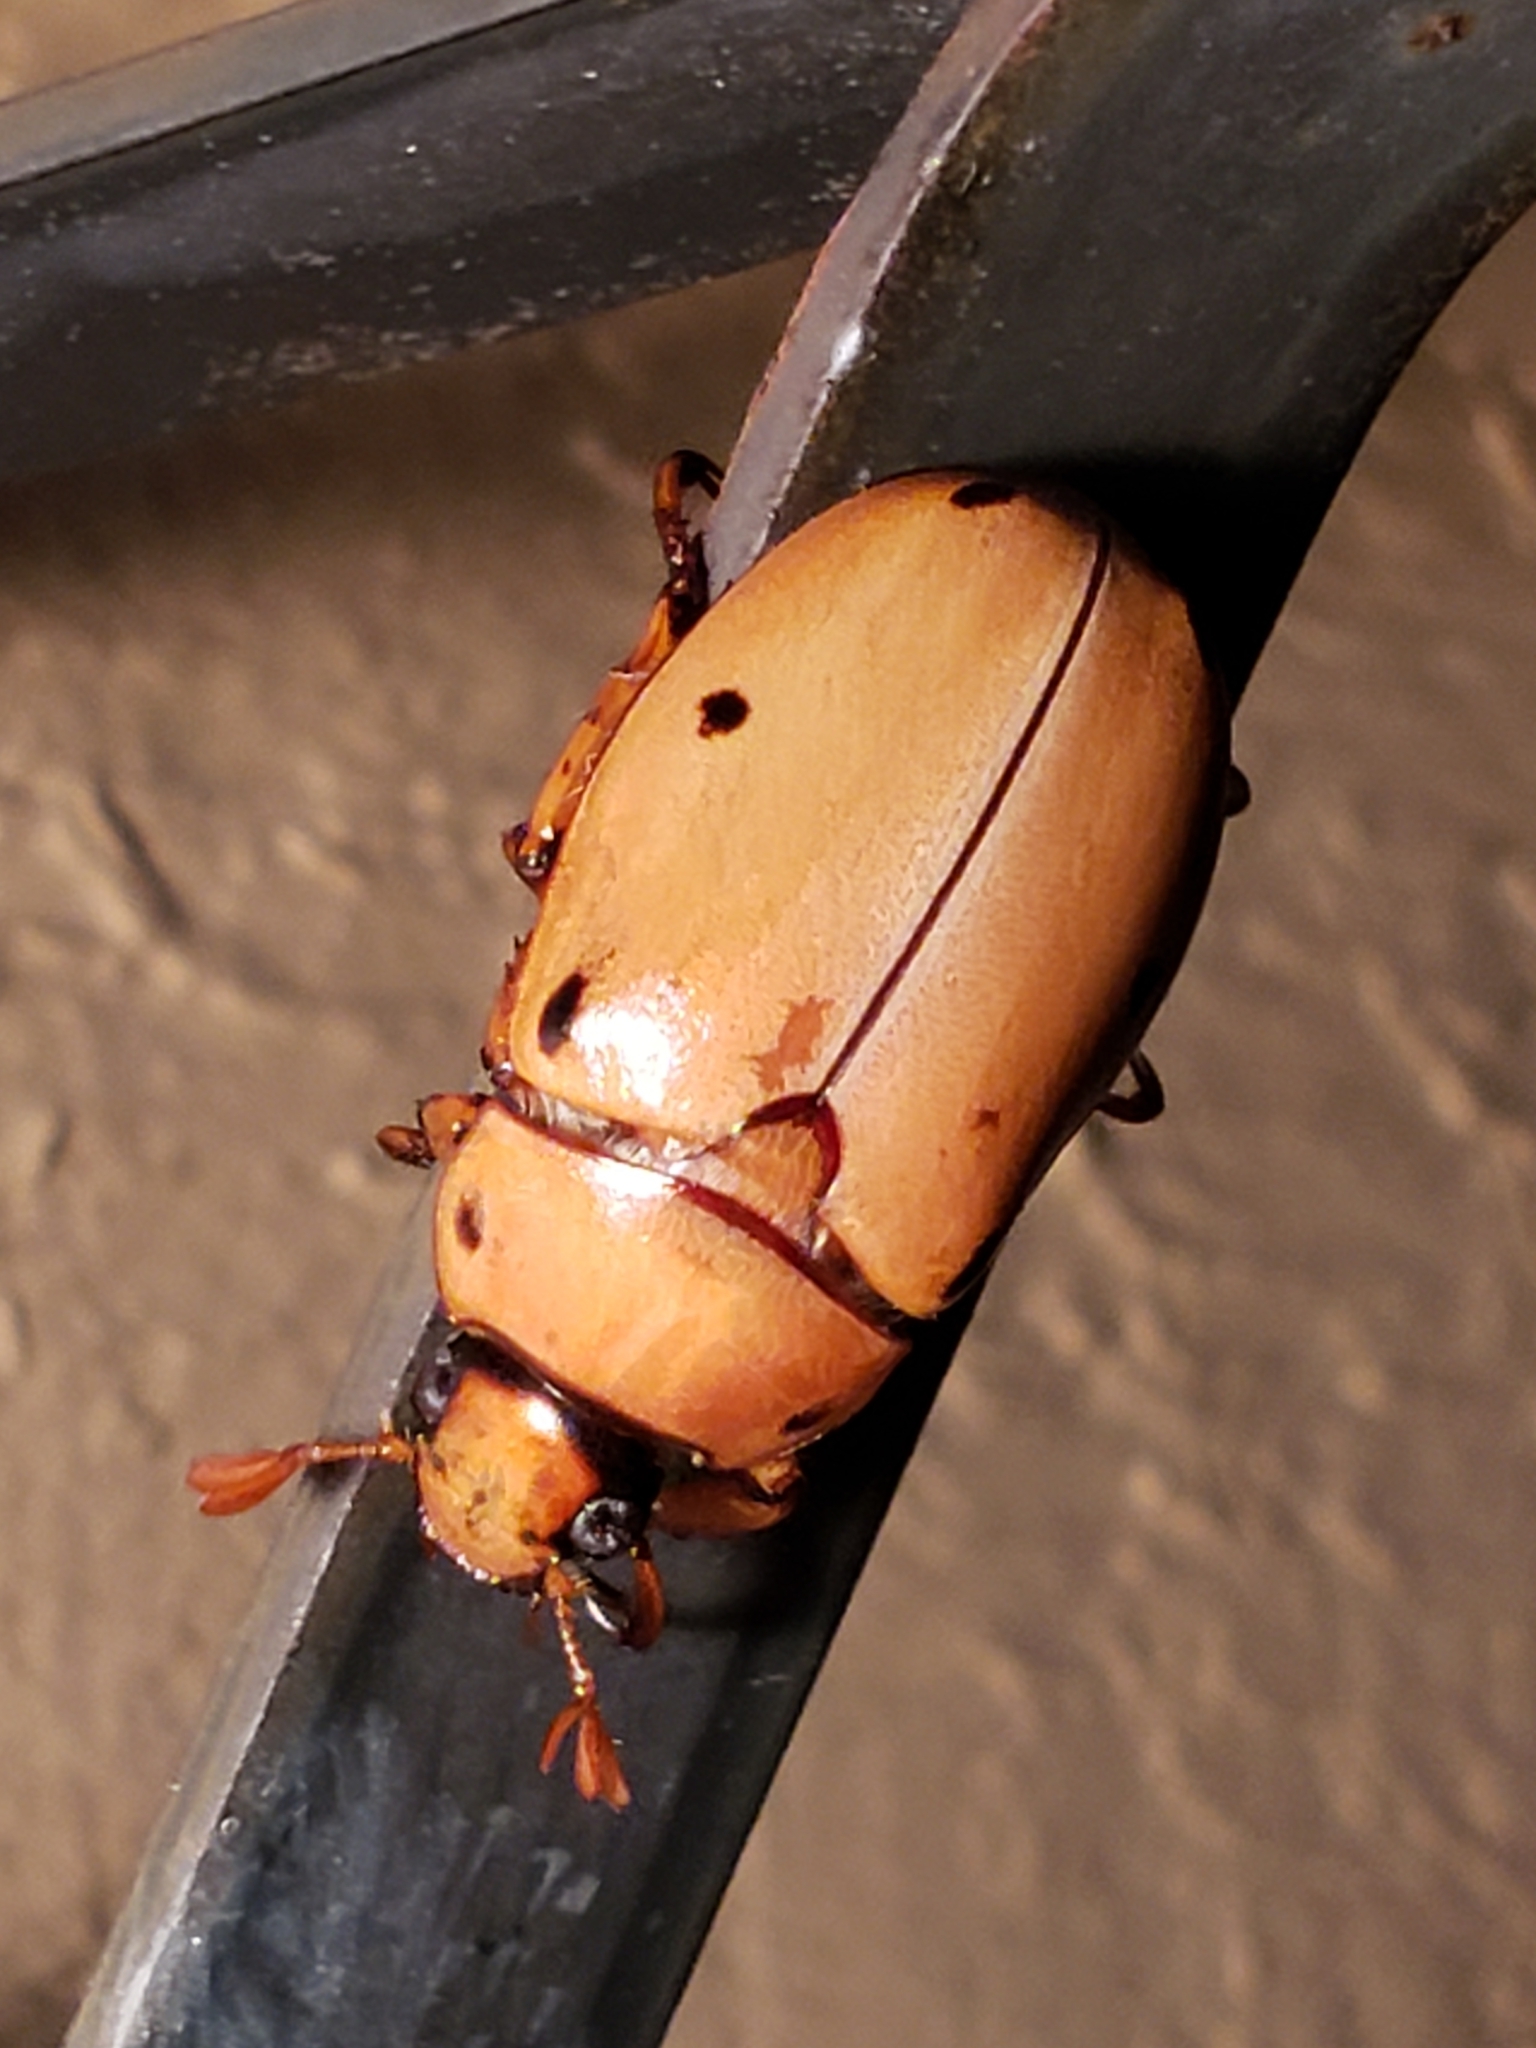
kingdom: Animalia
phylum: Arthropoda
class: Insecta
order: Coleoptera
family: Scarabaeidae
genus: Pelidnota
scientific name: Pelidnota punctata
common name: Grapevine beetle
